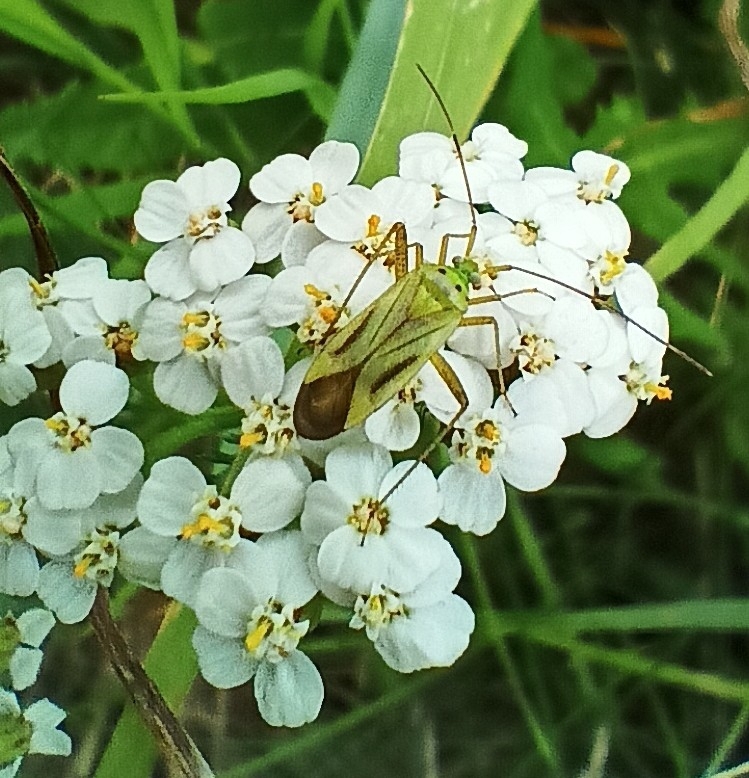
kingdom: Animalia
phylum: Arthropoda
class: Insecta
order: Hemiptera
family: Miridae
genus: Adelphocoris
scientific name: Adelphocoris quadripunctatus
